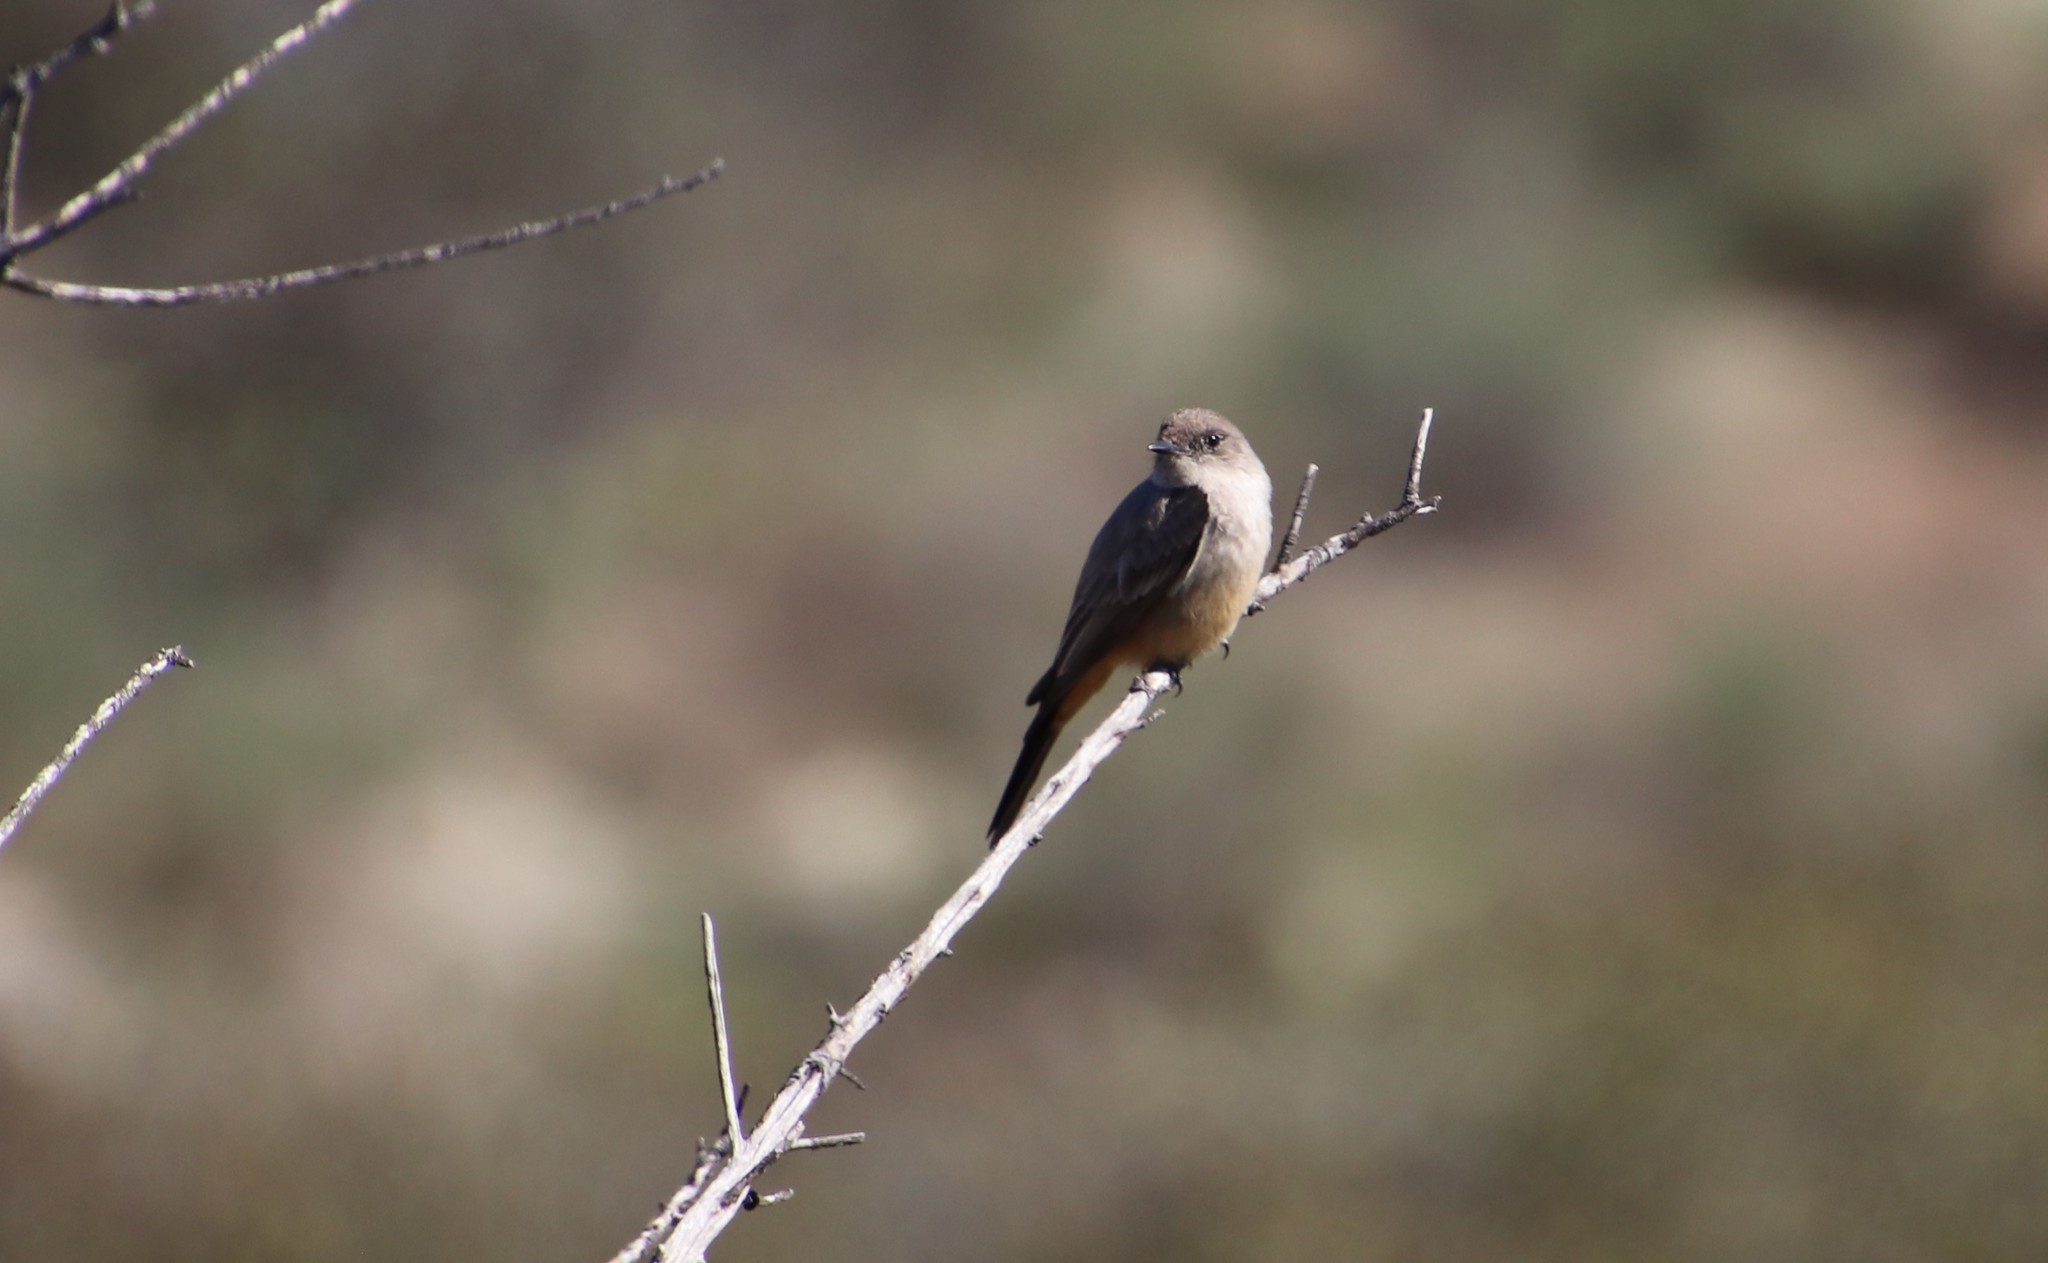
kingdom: Animalia
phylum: Chordata
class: Aves
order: Passeriformes
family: Tyrannidae
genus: Sayornis
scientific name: Sayornis saya
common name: Say's phoebe
